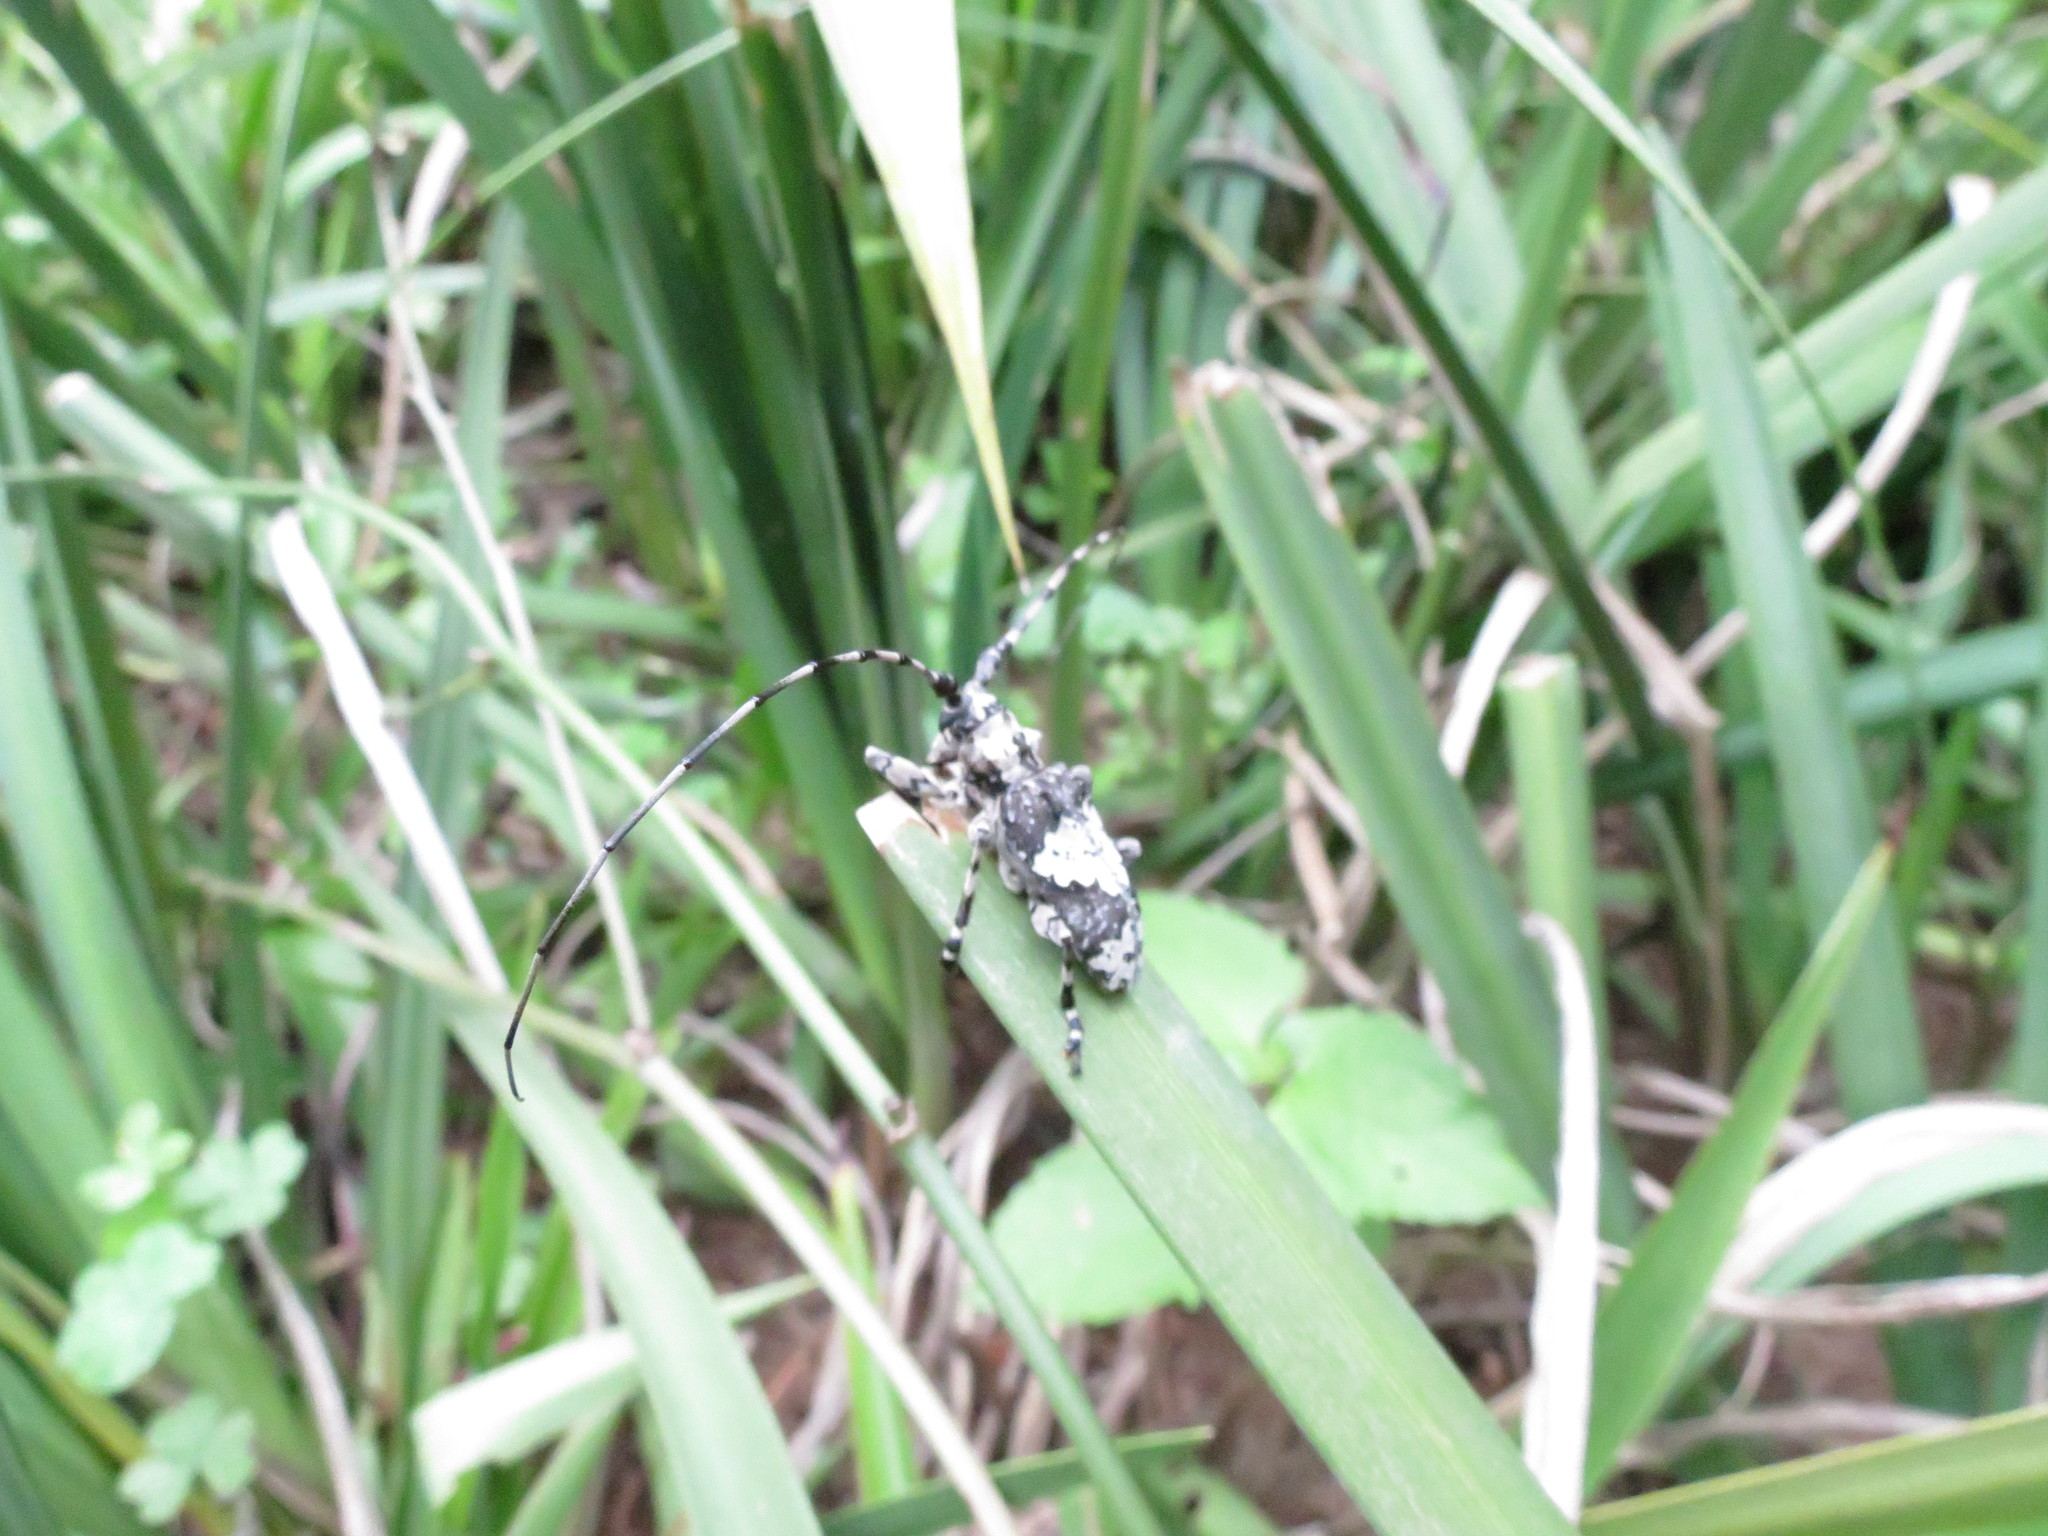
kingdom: Animalia
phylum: Arthropoda
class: Insecta
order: Coleoptera
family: Cerambycidae
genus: Lasiopezus
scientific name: Lasiopezus nigromaculatus
